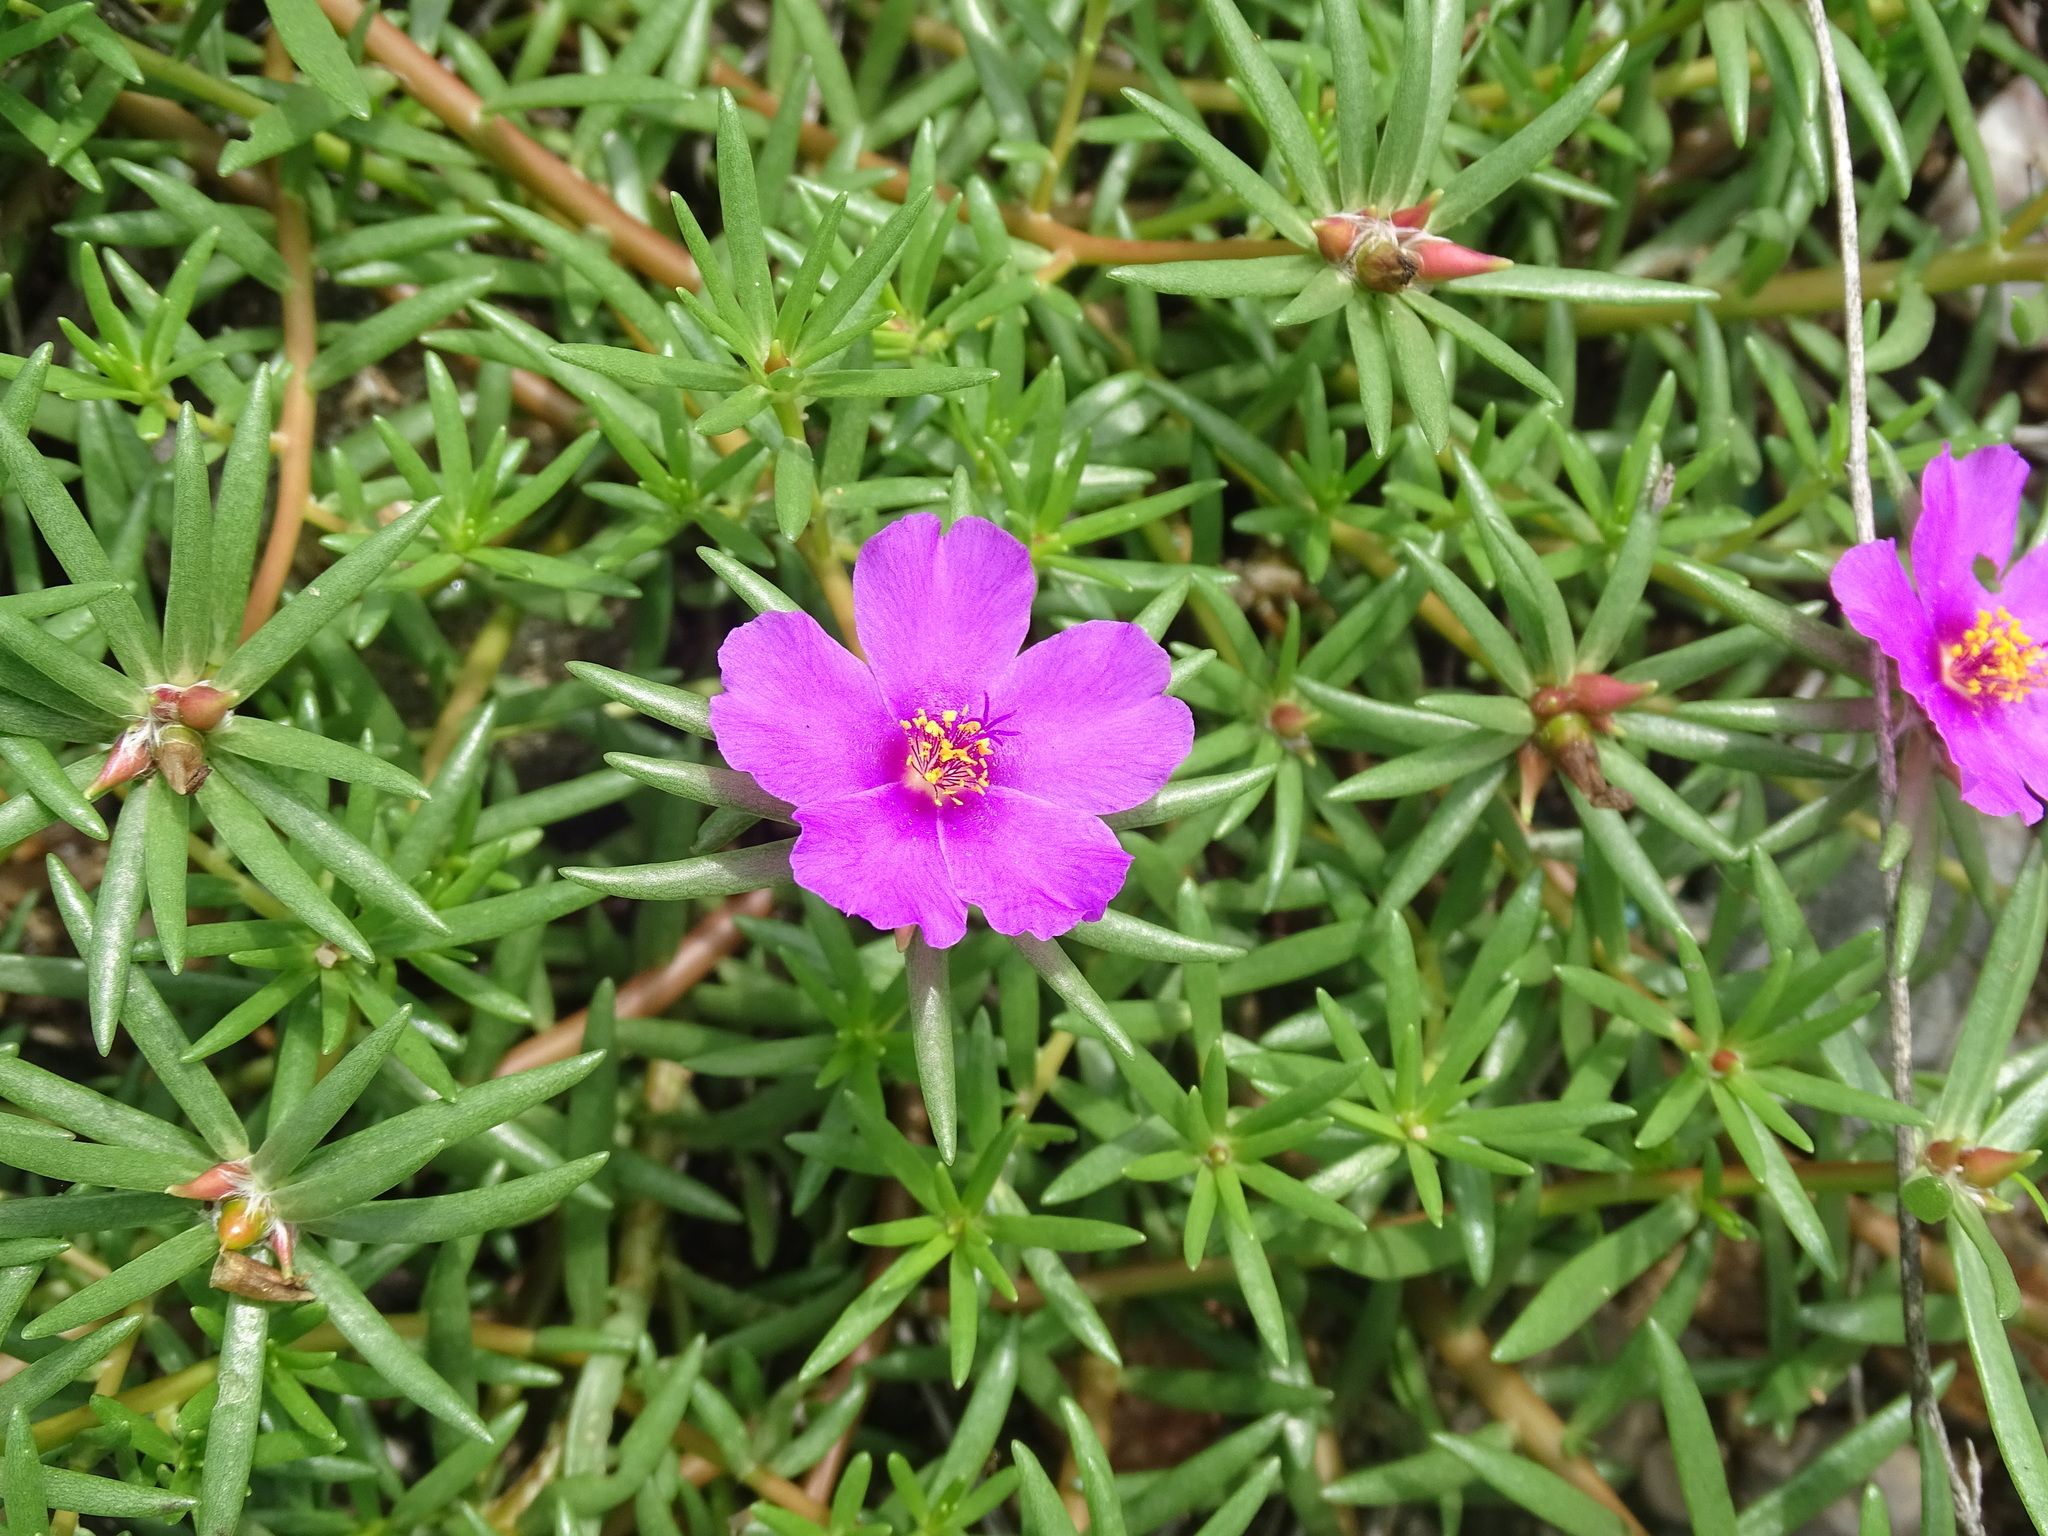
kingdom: Plantae
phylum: Tracheophyta
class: Magnoliopsida
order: Caryophyllales
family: Portulacaceae
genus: Portulaca
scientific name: Portulaca pilosa
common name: Kiss me quick
